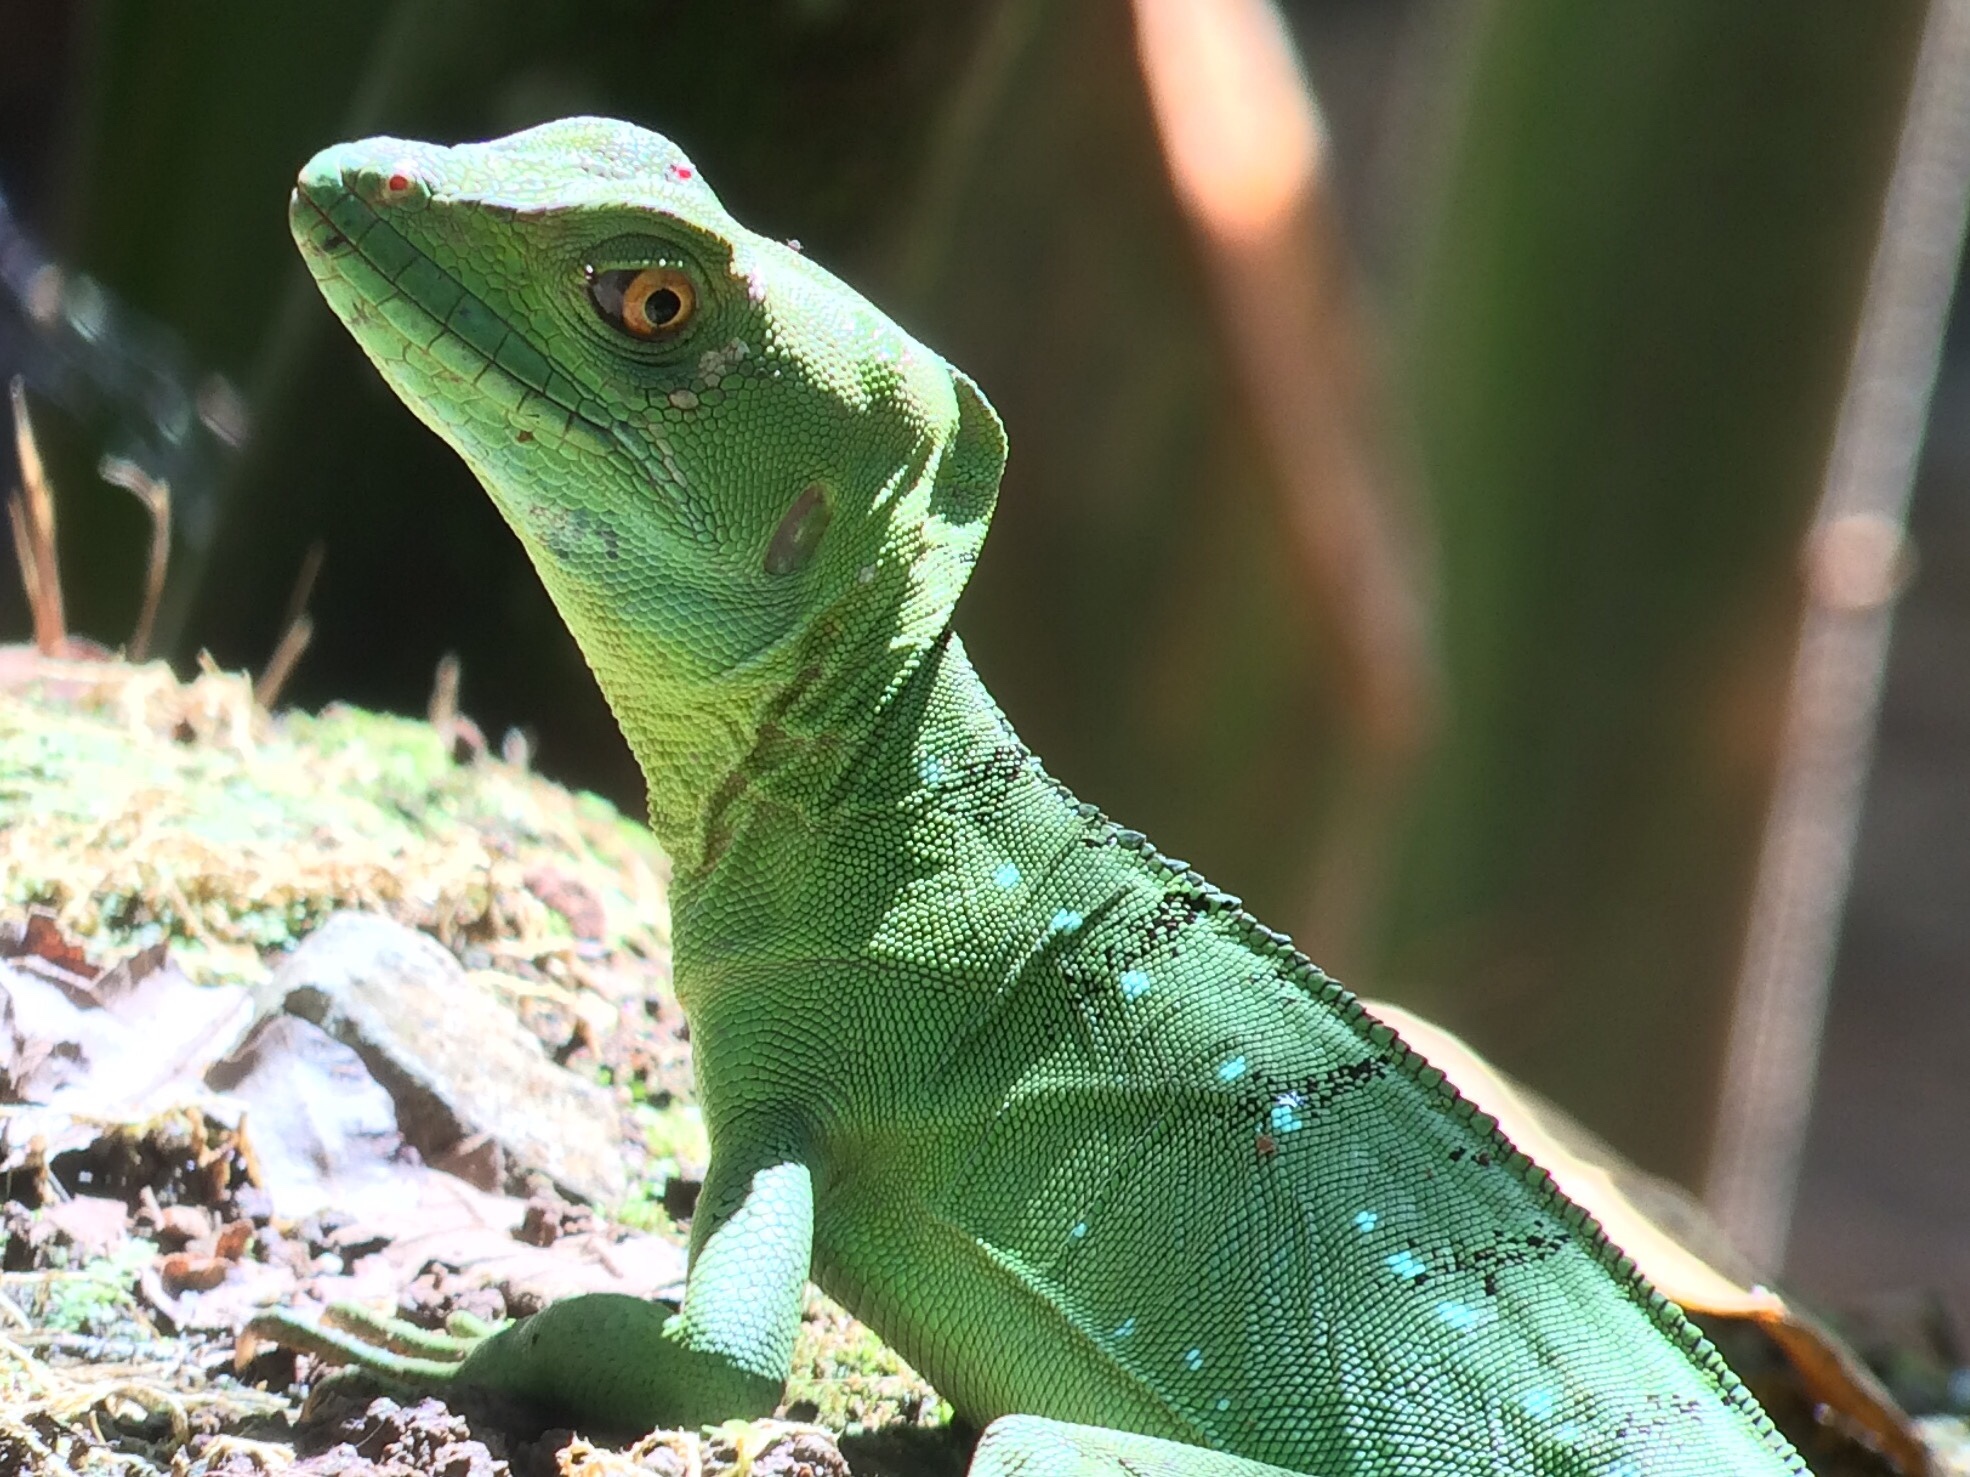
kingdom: Animalia
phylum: Chordata
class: Squamata
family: Corytophanidae
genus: Basiliscus
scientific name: Basiliscus plumifrons
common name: Green basilisk
